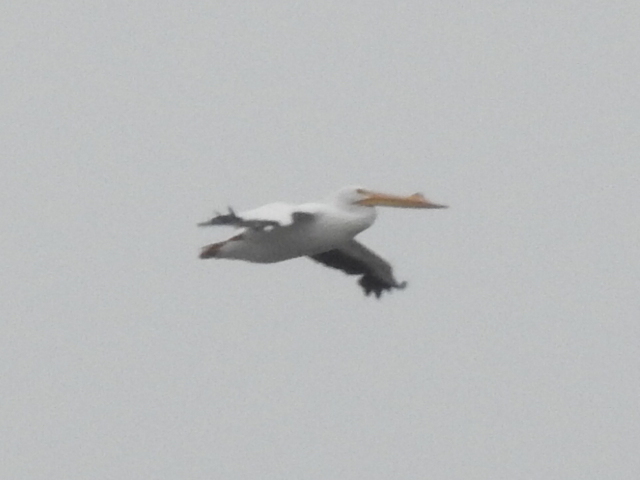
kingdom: Animalia
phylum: Chordata
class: Aves
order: Pelecaniformes
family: Pelecanidae
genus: Pelecanus
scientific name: Pelecanus erythrorhynchos
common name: American white pelican
